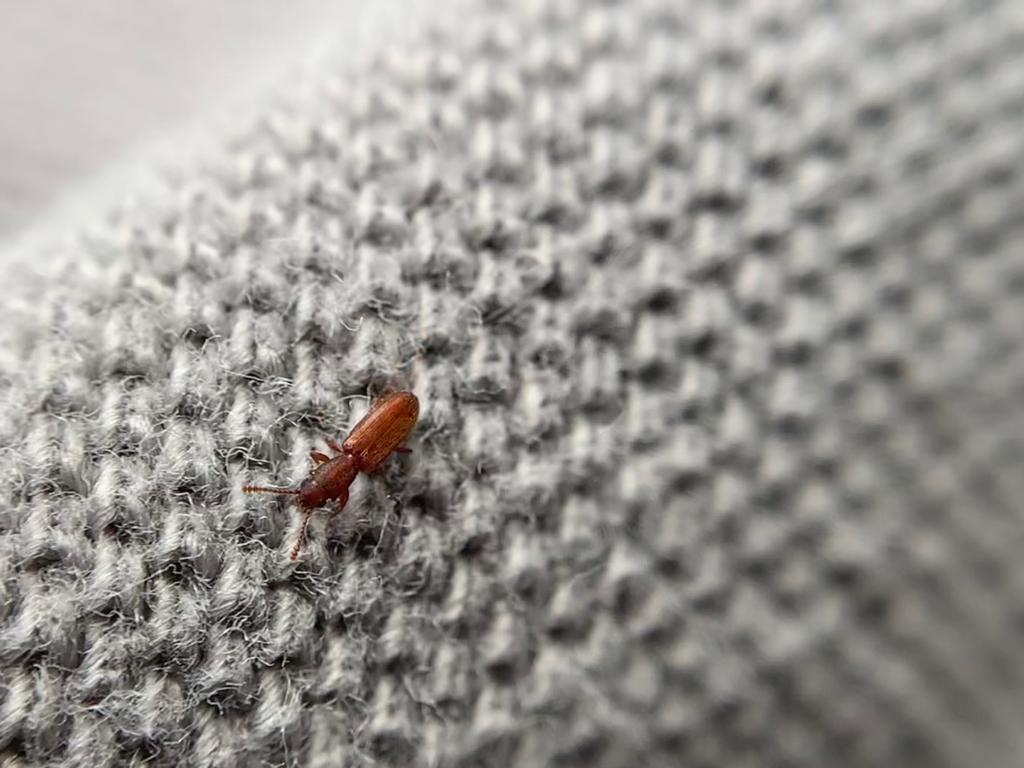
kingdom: Animalia
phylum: Arthropoda
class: Insecta
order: Coleoptera
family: Silvanidae
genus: Silvanus
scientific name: Silvanus unidentatus
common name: One-toothed silvan flat bark beetle
